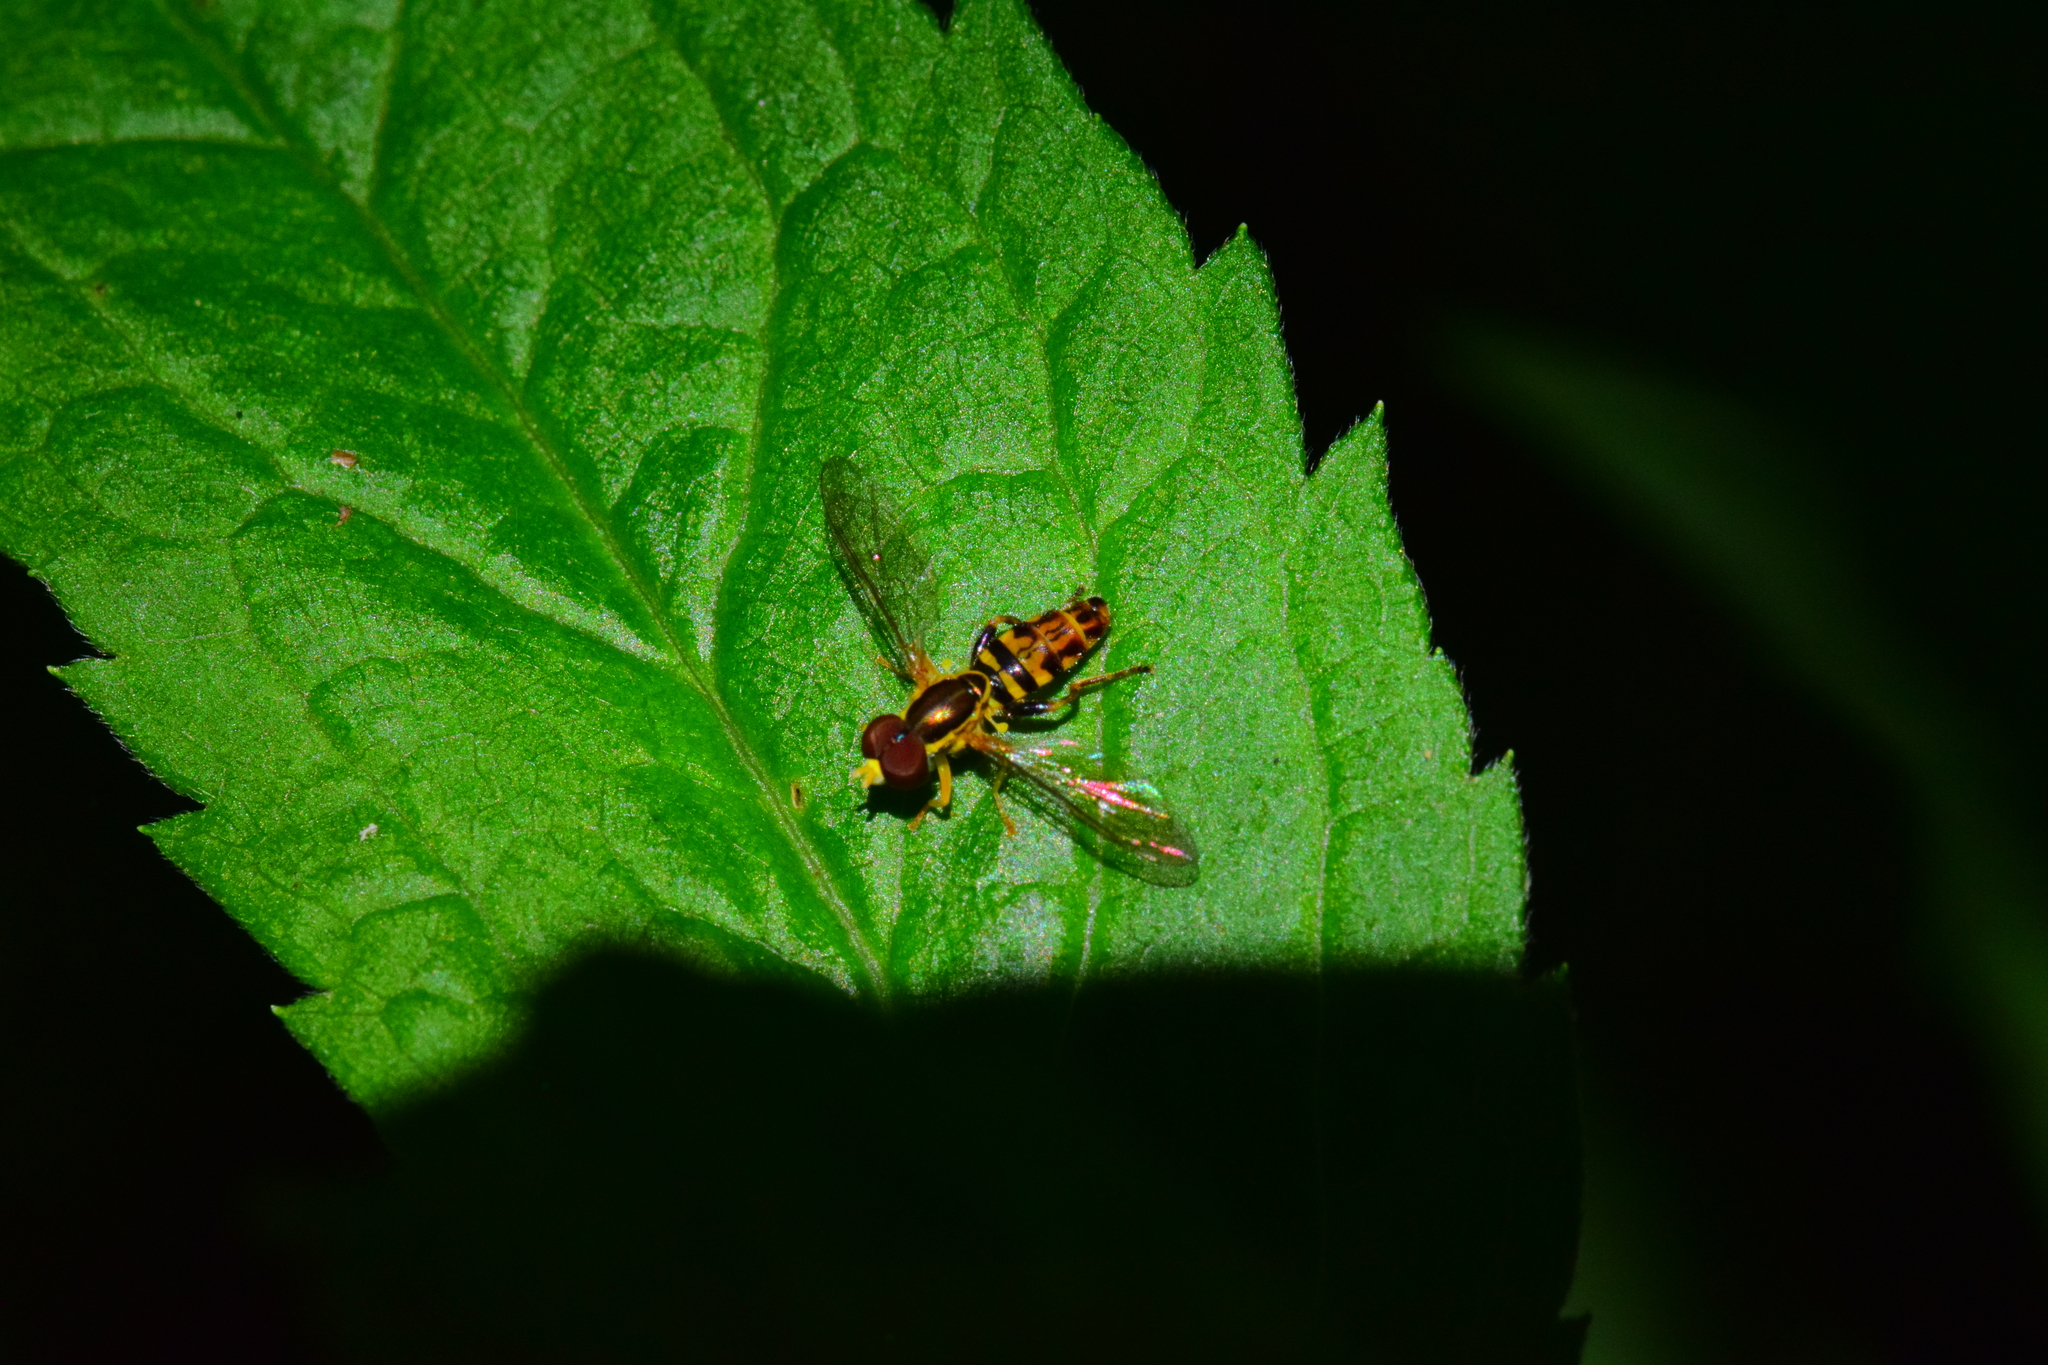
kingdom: Animalia
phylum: Arthropoda
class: Insecta
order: Diptera
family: Syrphidae
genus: Toxomerus
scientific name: Toxomerus geminatus
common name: Eastern calligrapher
